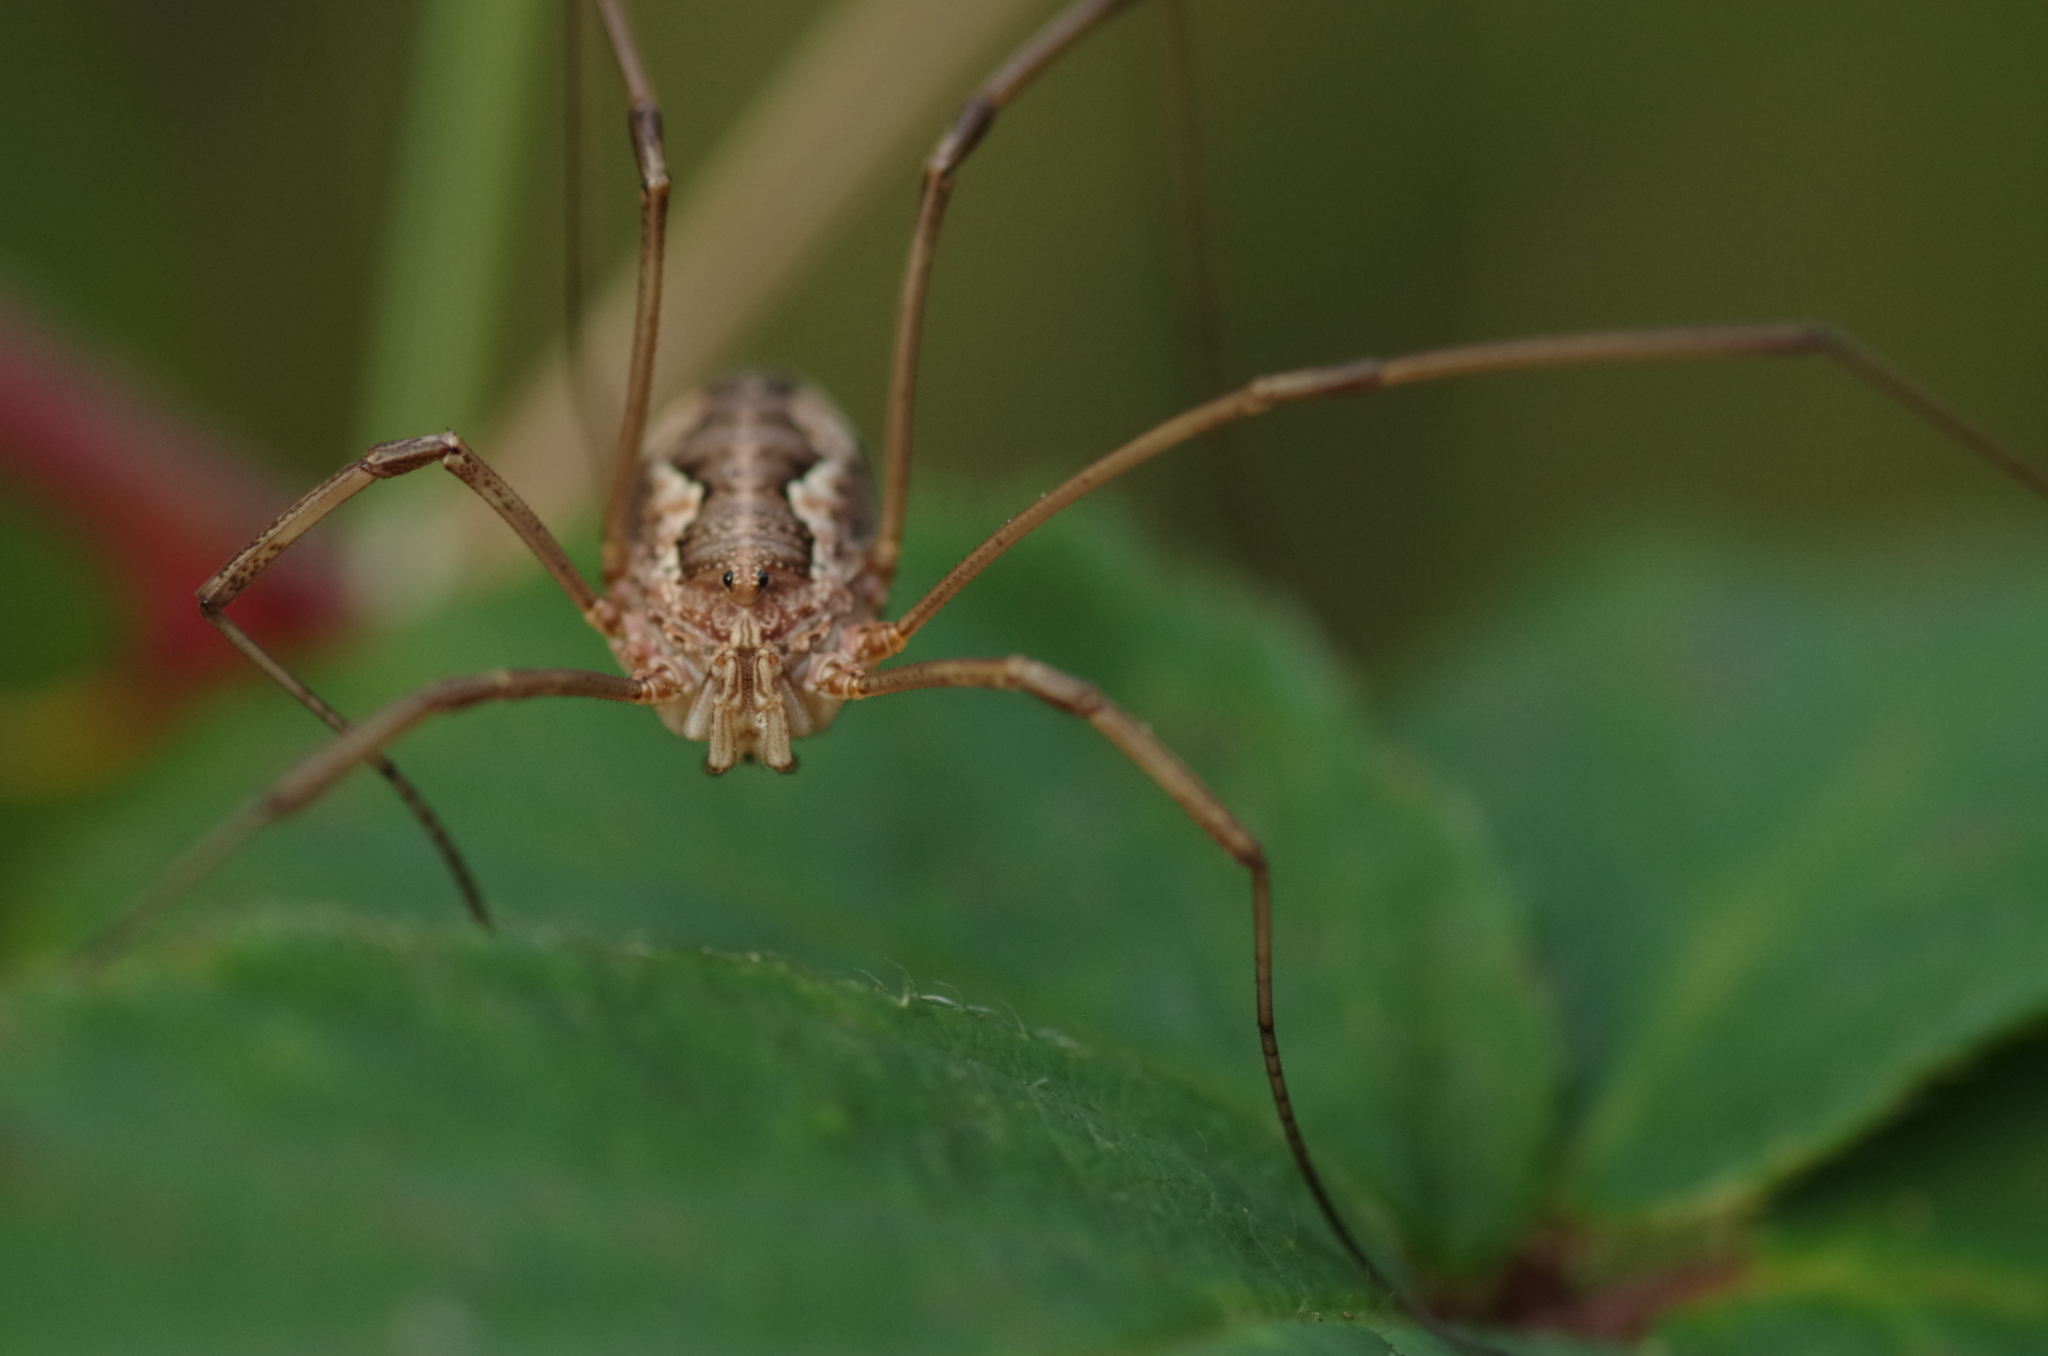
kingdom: Animalia
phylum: Arthropoda
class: Arachnida
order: Opiliones
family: Phalangiidae
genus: Phalangium
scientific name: Phalangium opilio
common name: Daddy longleg
